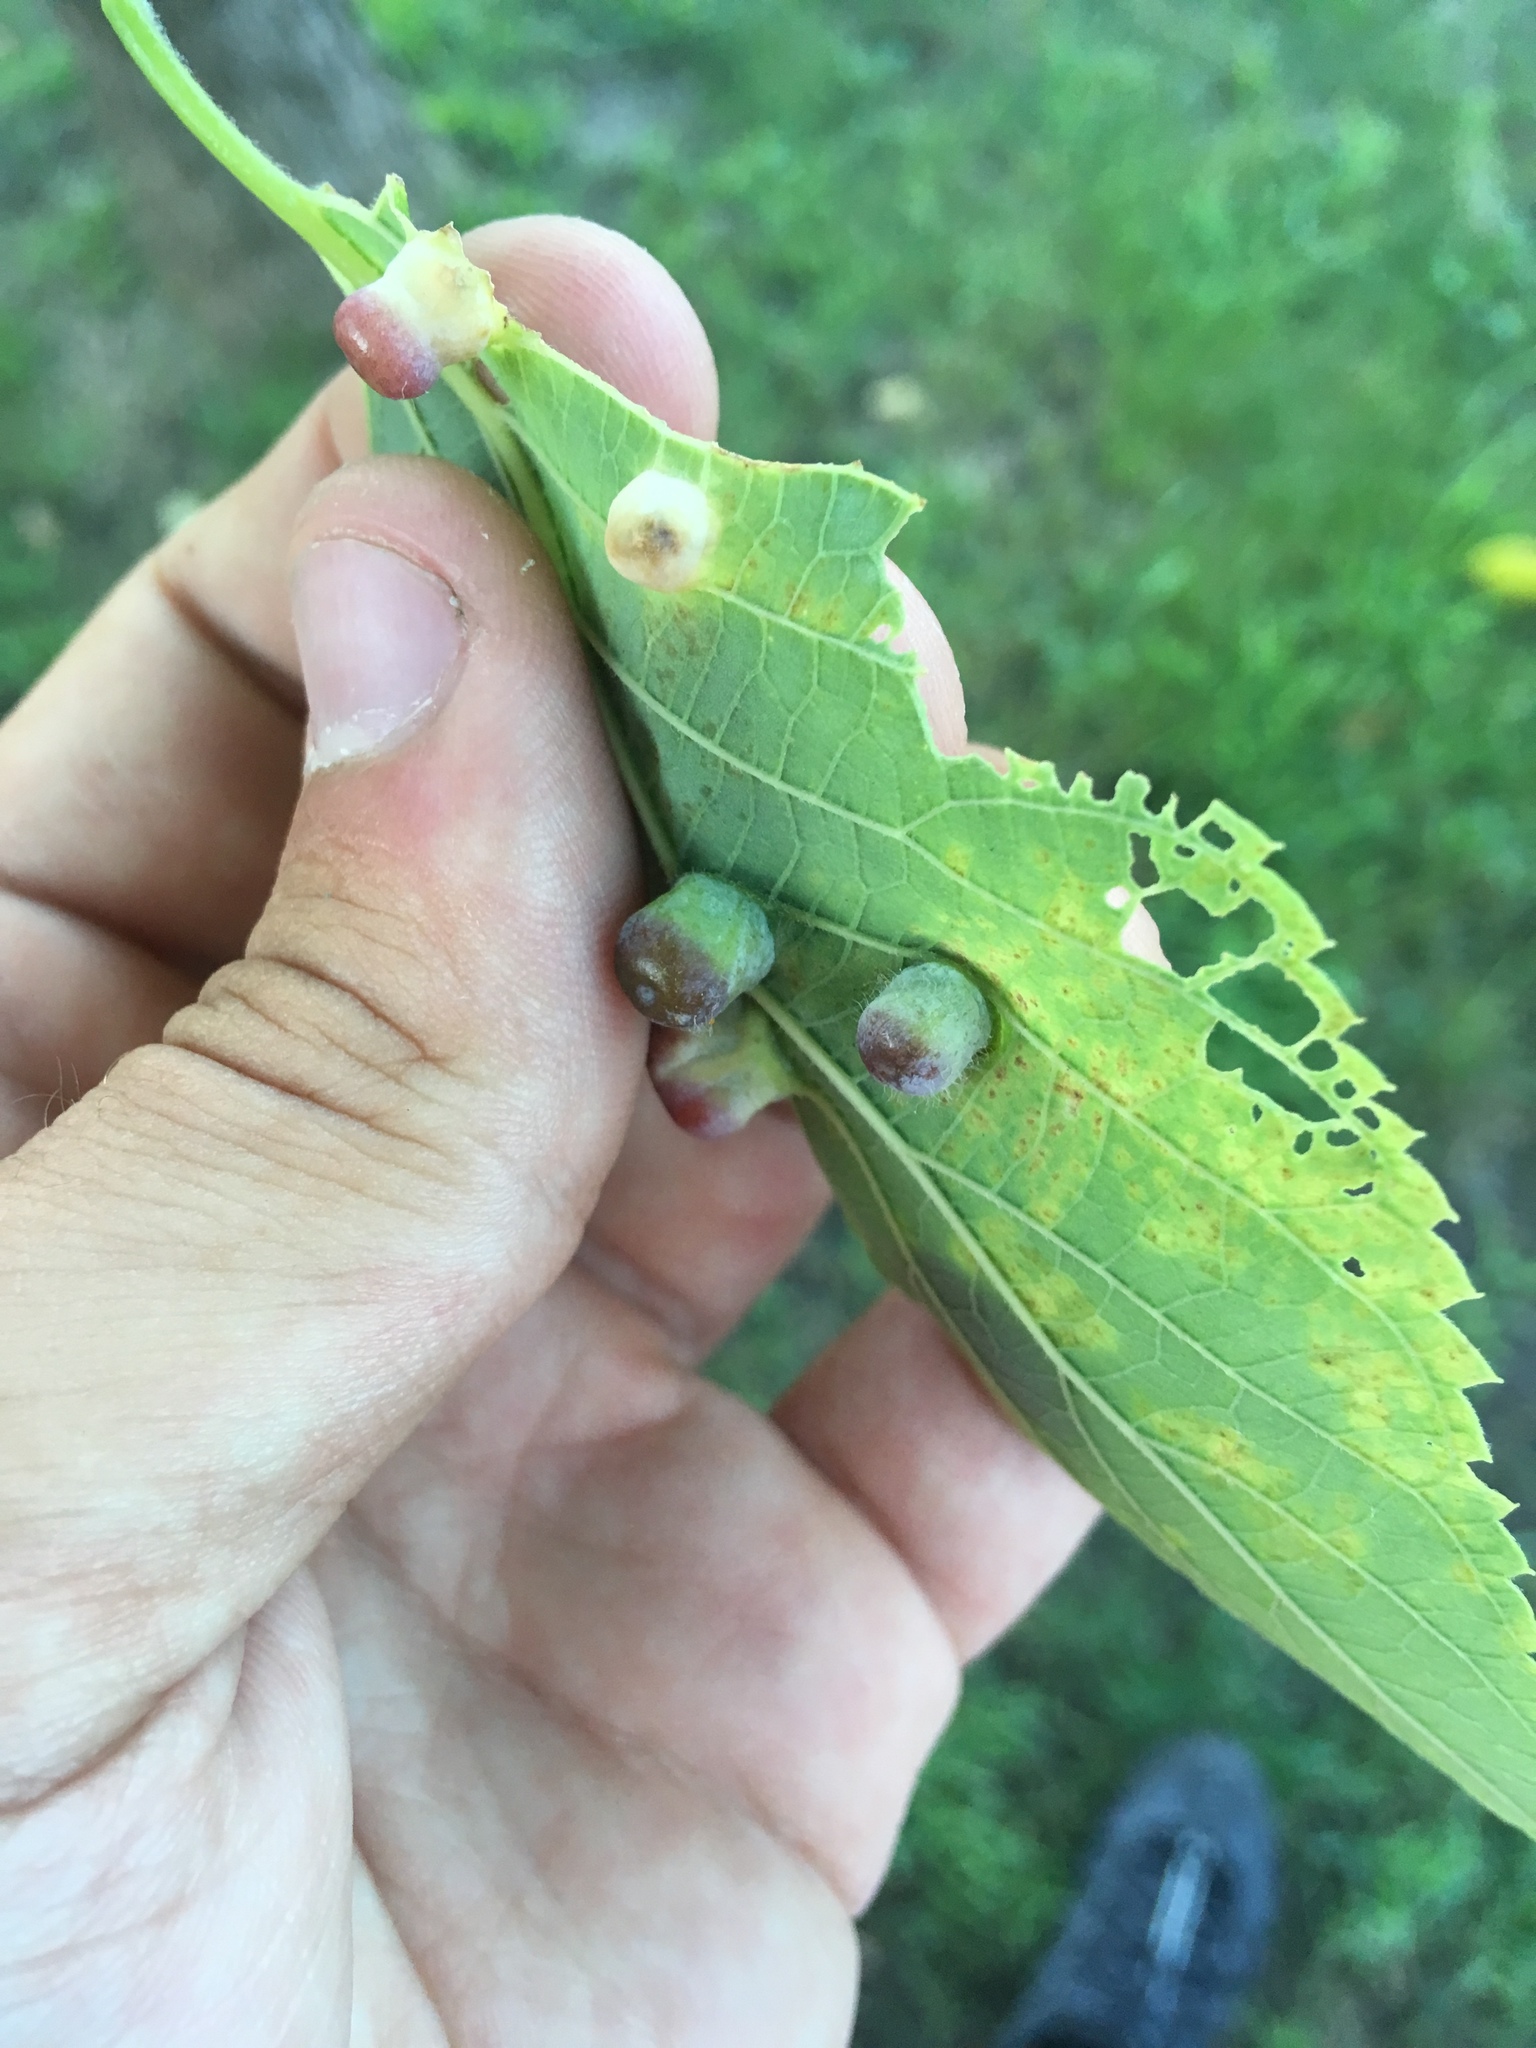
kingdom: Animalia
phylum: Arthropoda
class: Insecta
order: Hemiptera
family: Aphalaridae
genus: Pachypsylla
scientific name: Pachypsylla celtidismamma
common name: Hackberry nipplegall psyllid
